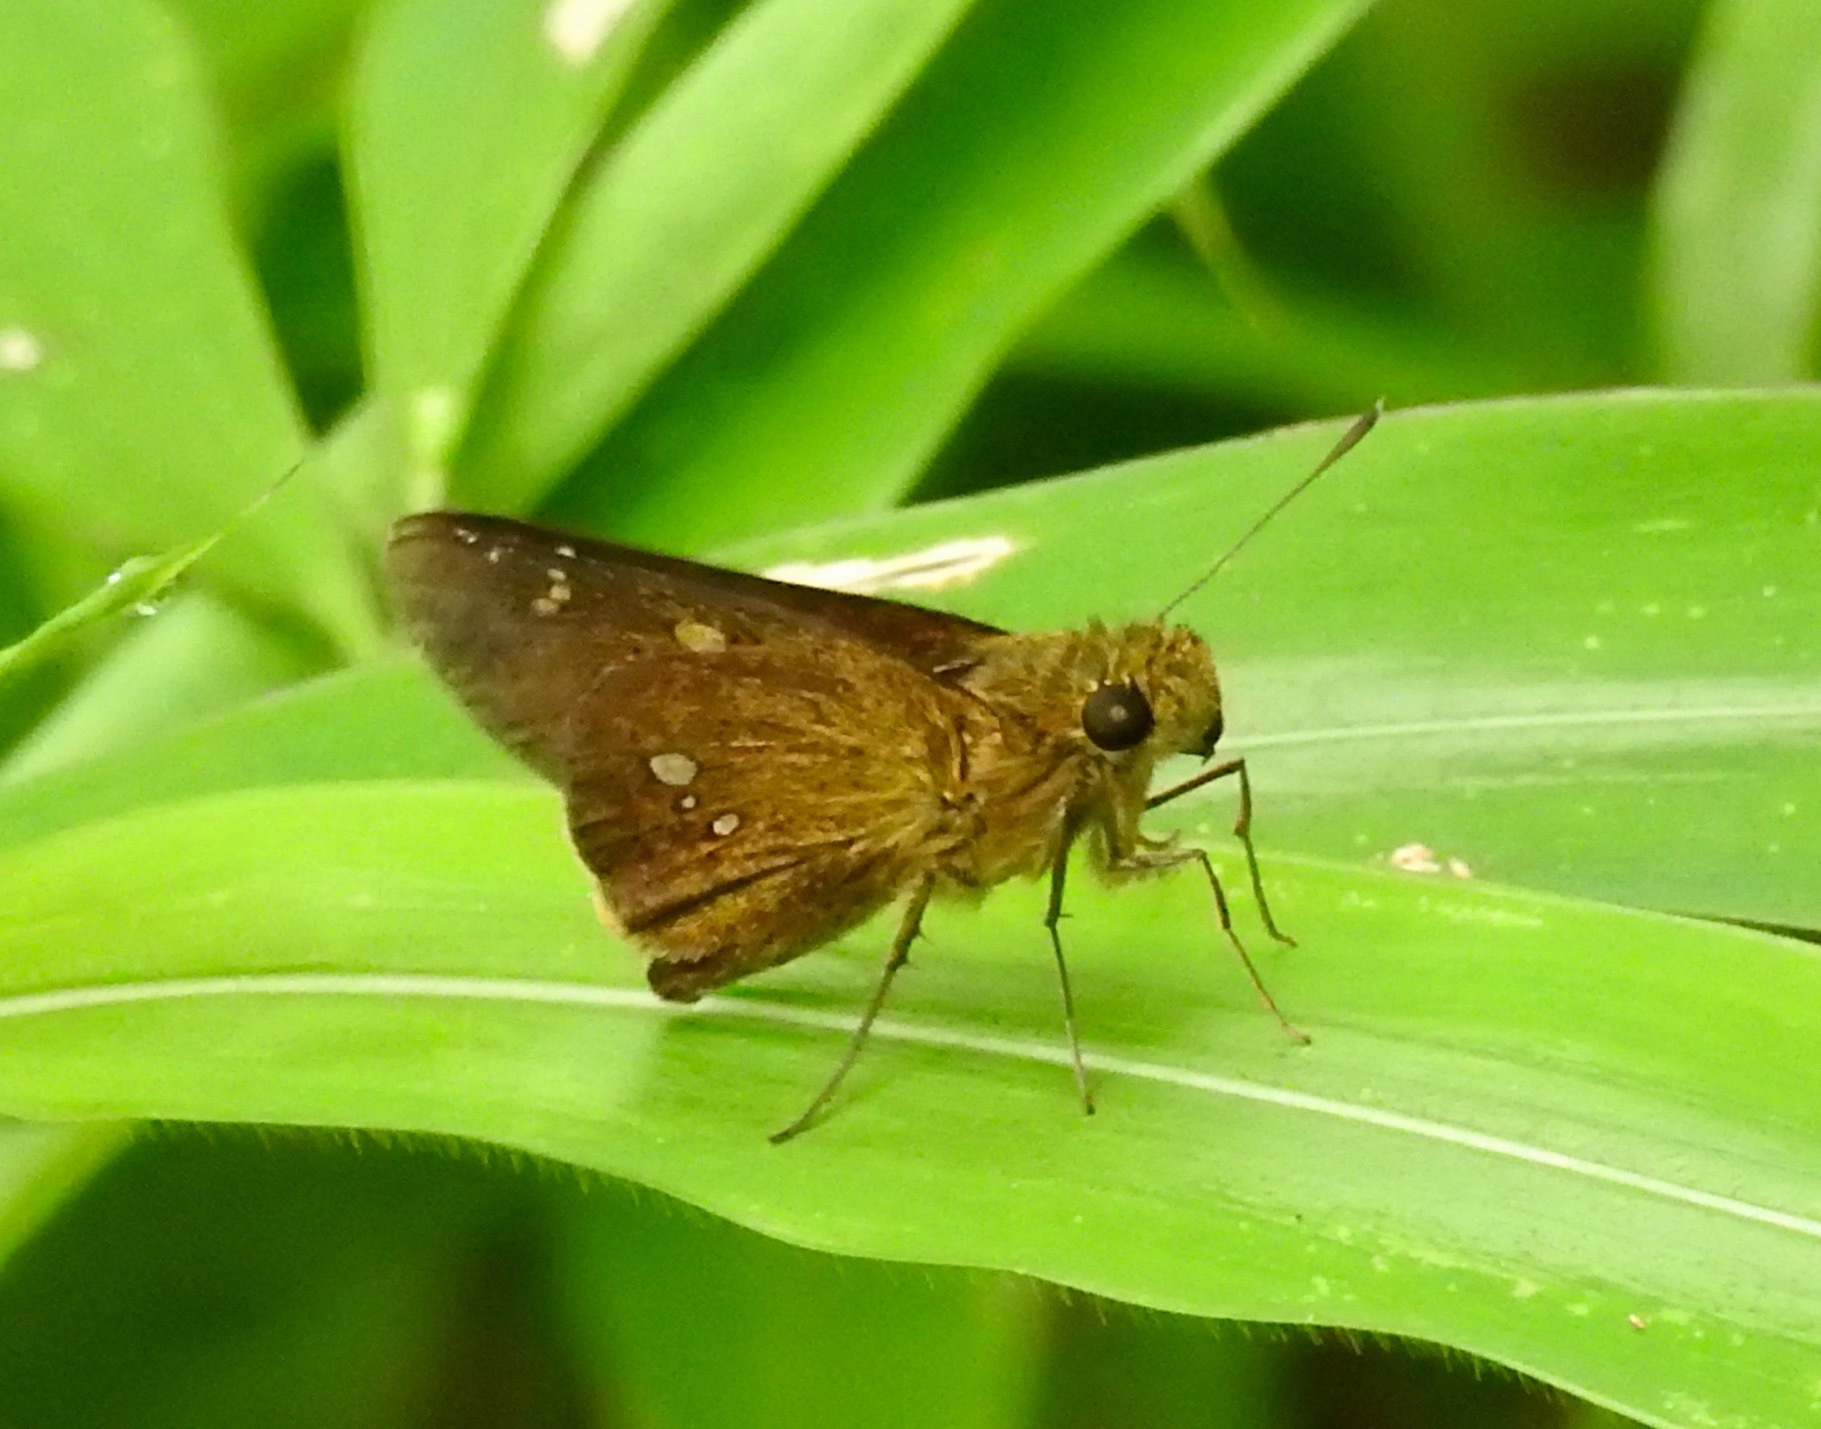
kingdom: Animalia
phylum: Arthropoda
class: Insecta
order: Lepidoptera
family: Hesperiidae
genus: Polytremis
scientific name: Polytremis eltola
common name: Yellow-spot swift
